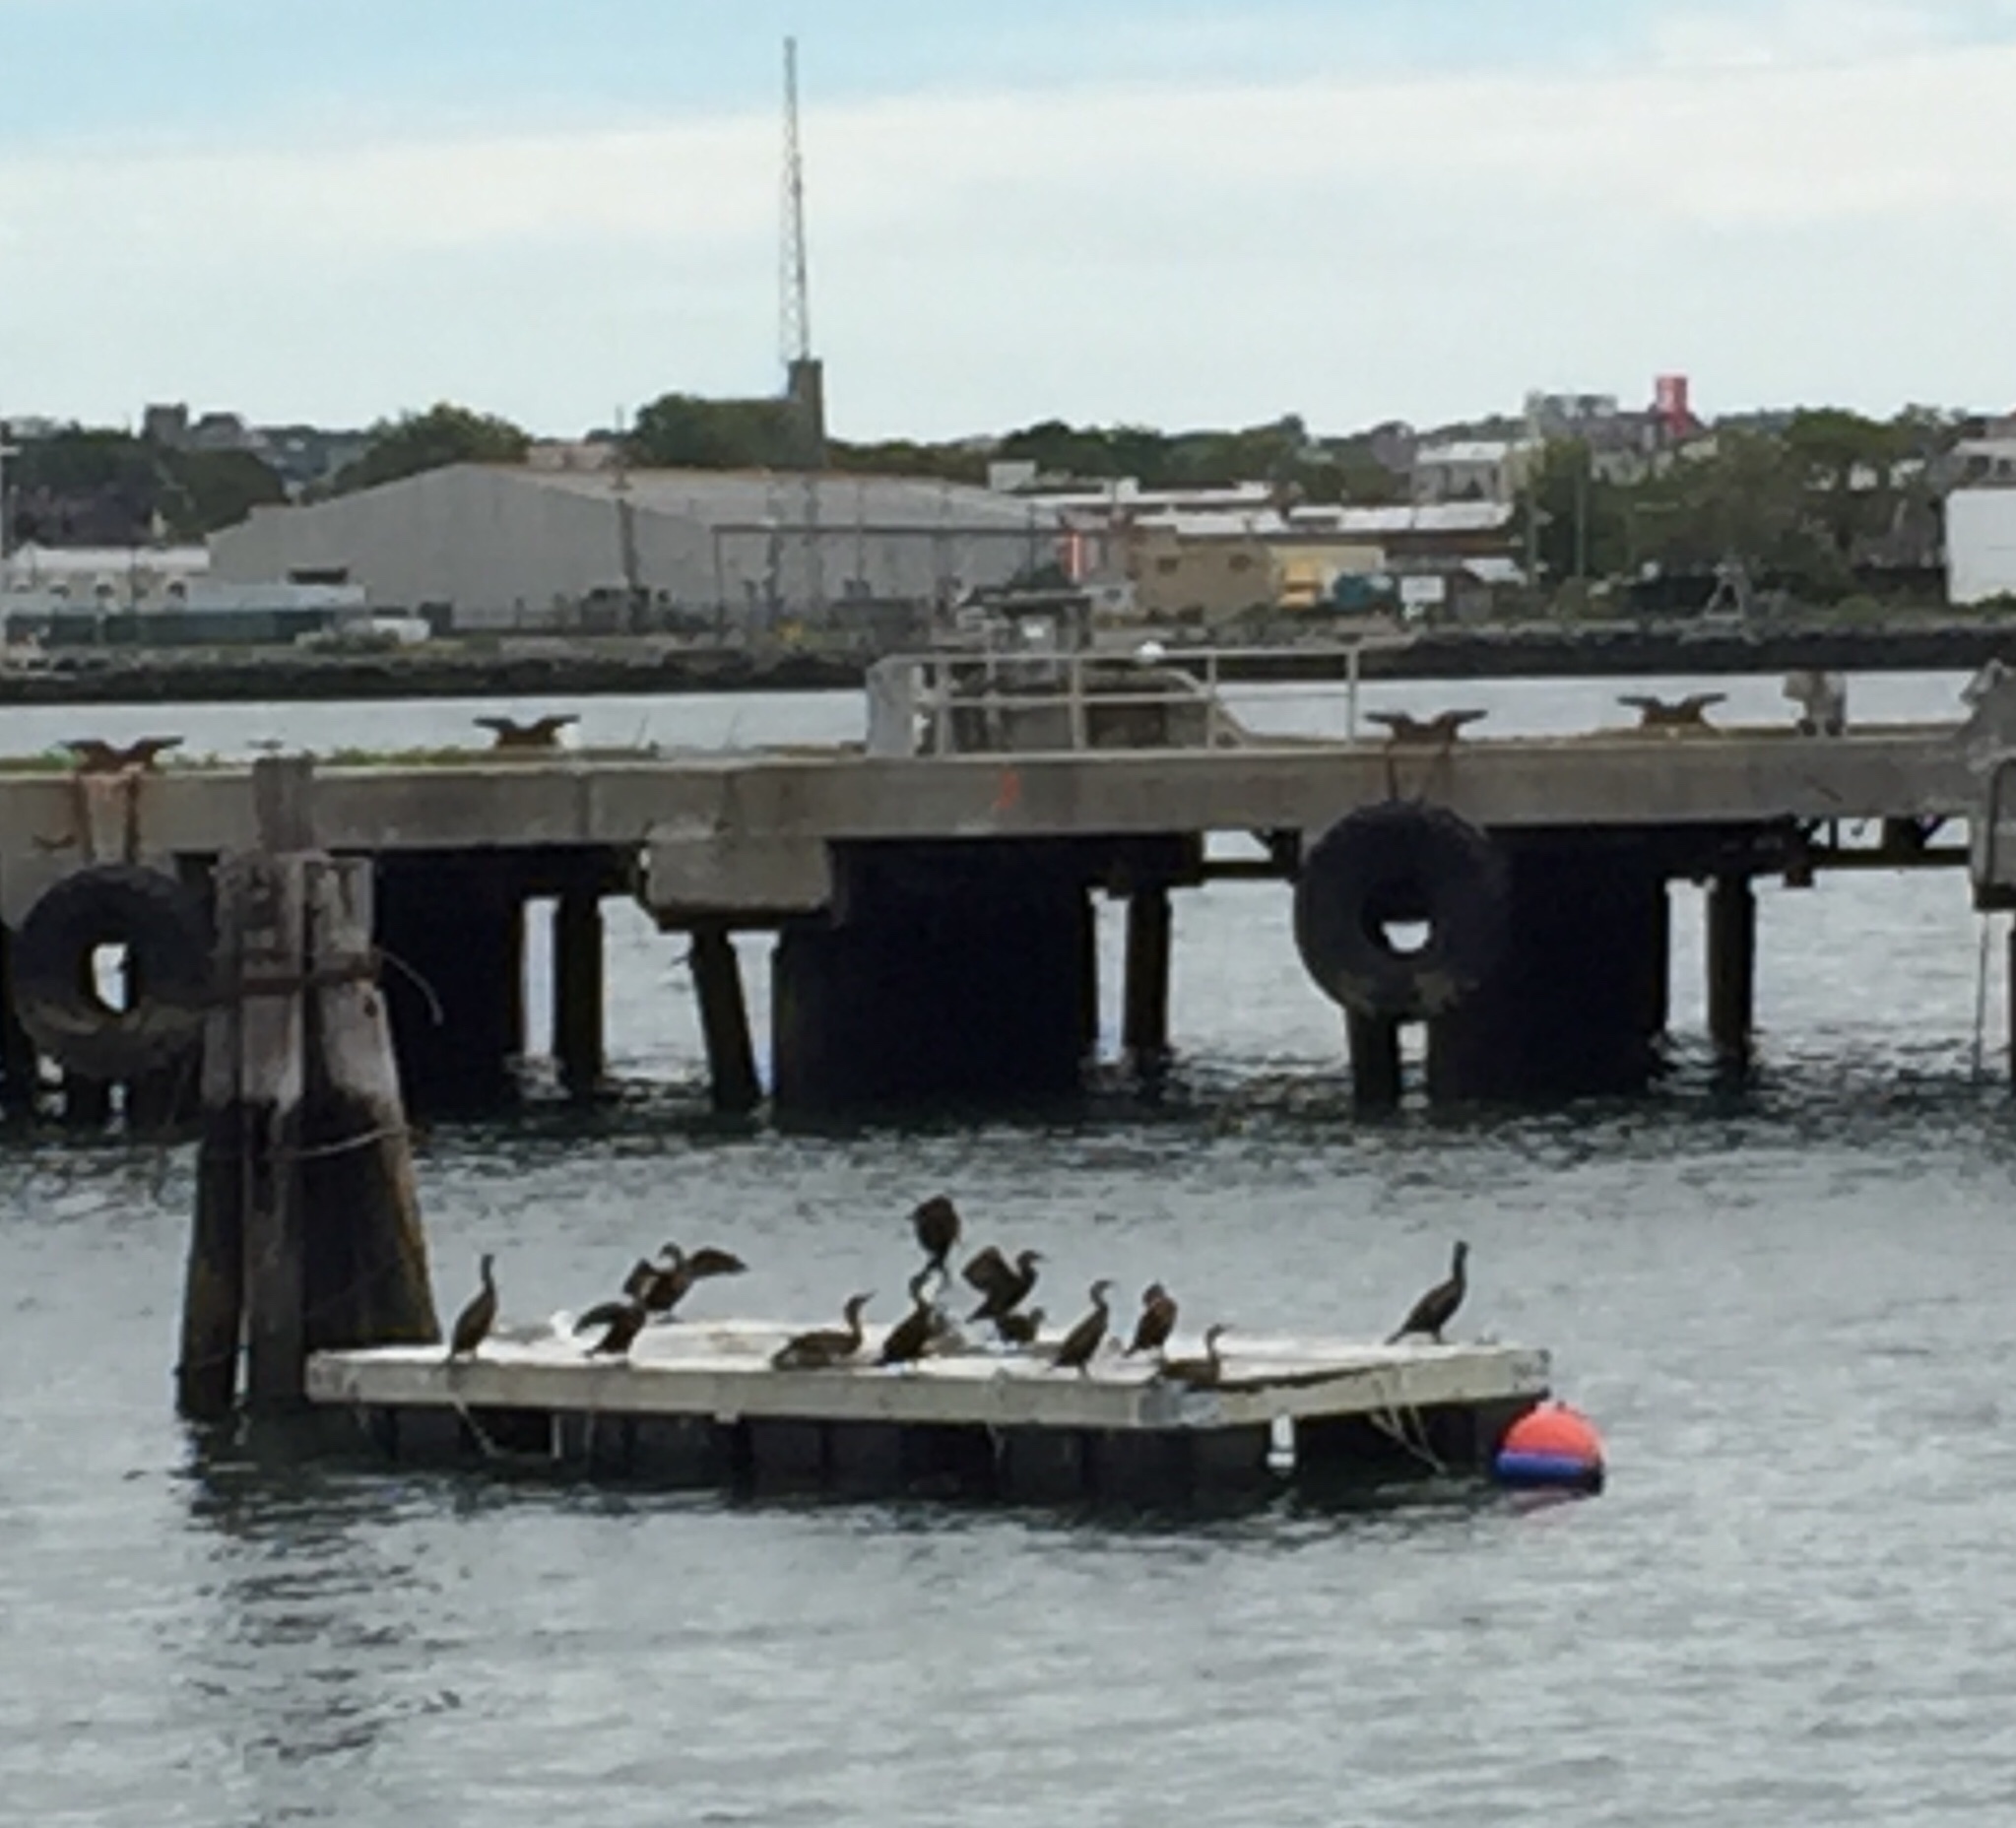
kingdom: Animalia
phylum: Chordata
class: Aves
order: Suliformes
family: Phalacrocoracidae
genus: Phalacrocorax
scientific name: Phalacrocorax auritus
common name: Double-crested cormorant
